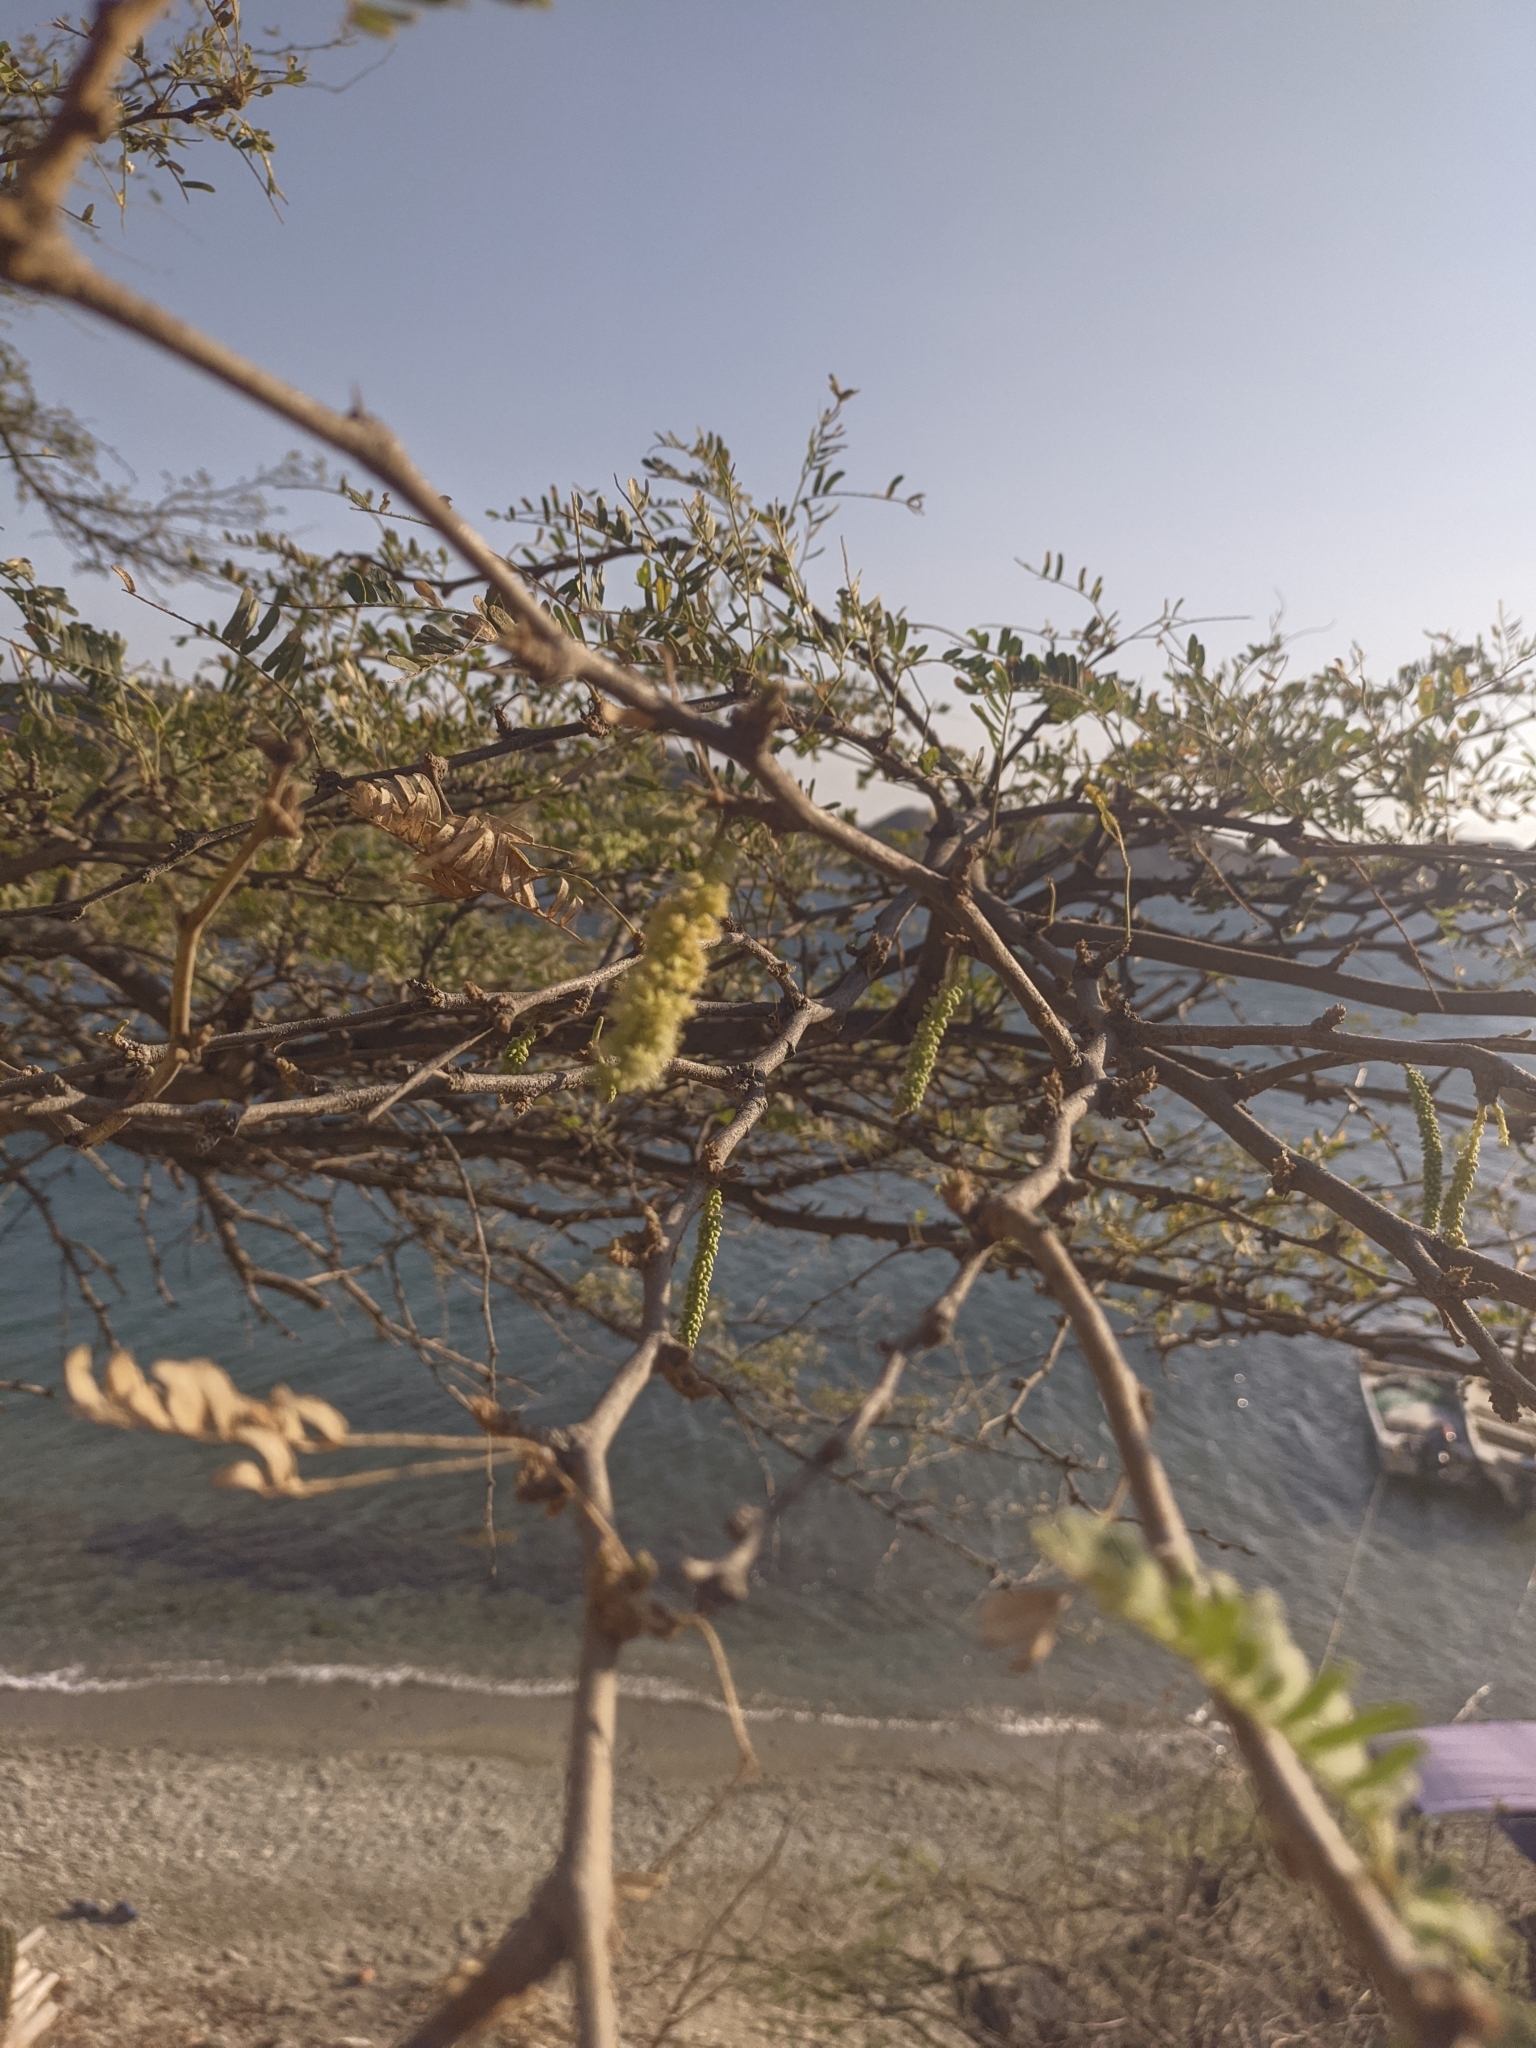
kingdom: Plantae
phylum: Tracheophyta
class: Magnoliopsida
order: Fabales
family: Fabaceae
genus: Prosopis
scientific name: Prosopis juliflora
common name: Mesquite
